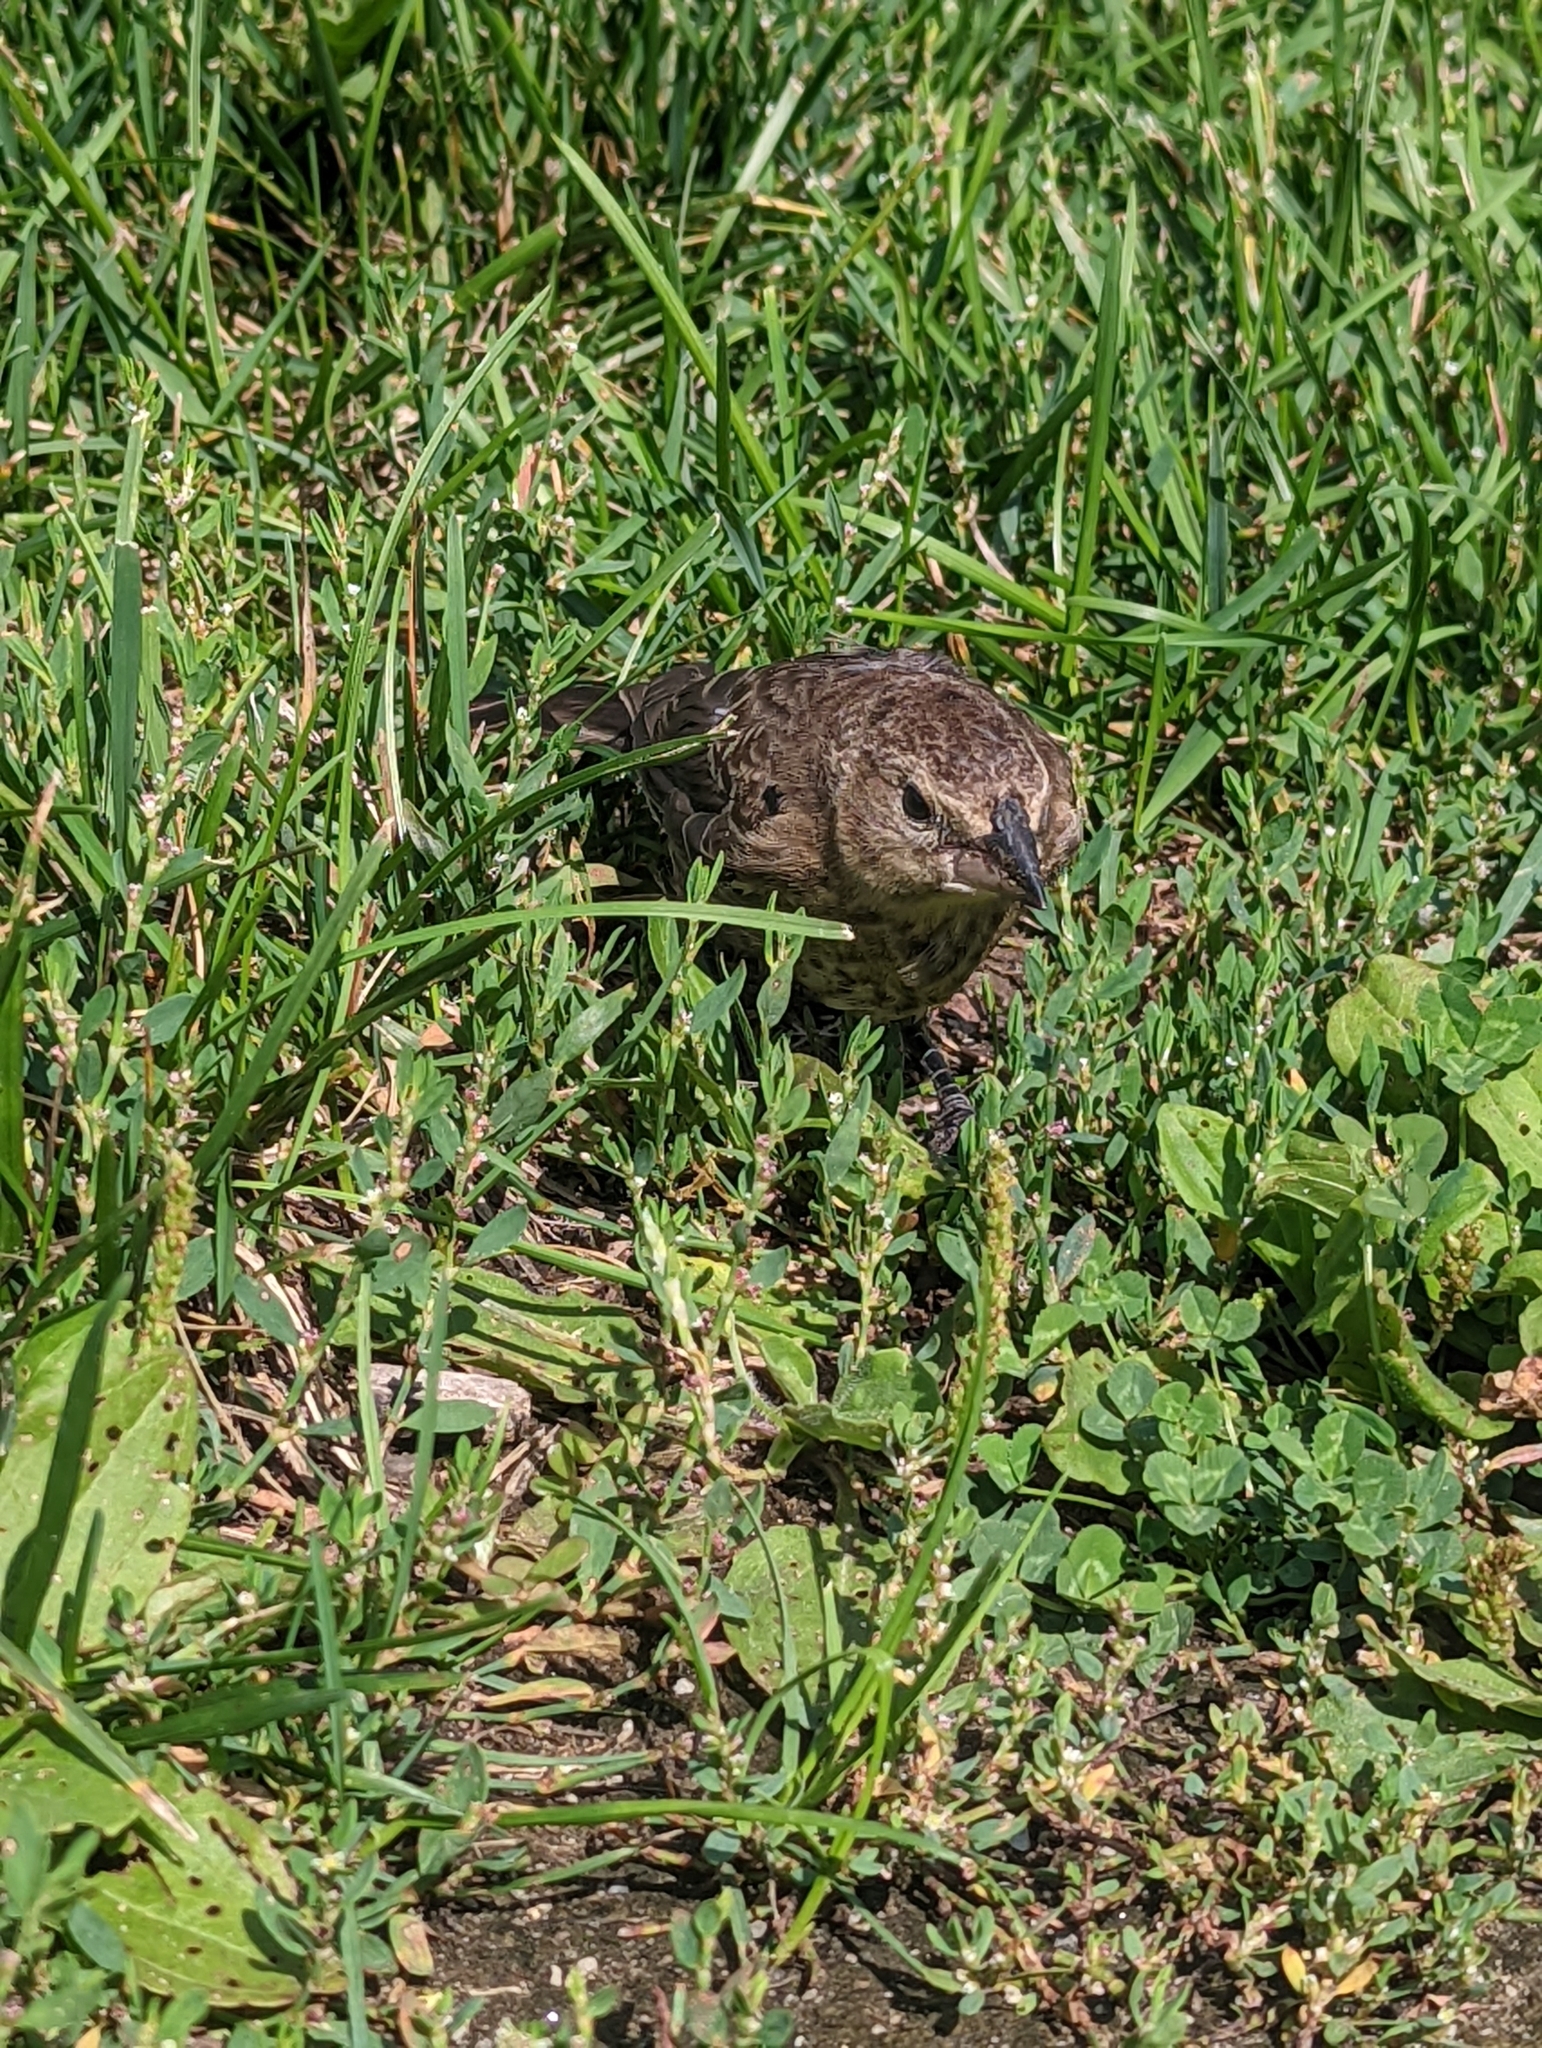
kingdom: Animalia
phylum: Chordata
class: Aves
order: Passeriformes
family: Icteridae
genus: Molothrus
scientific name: Molothrus ater
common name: Brown-headed cowbird
